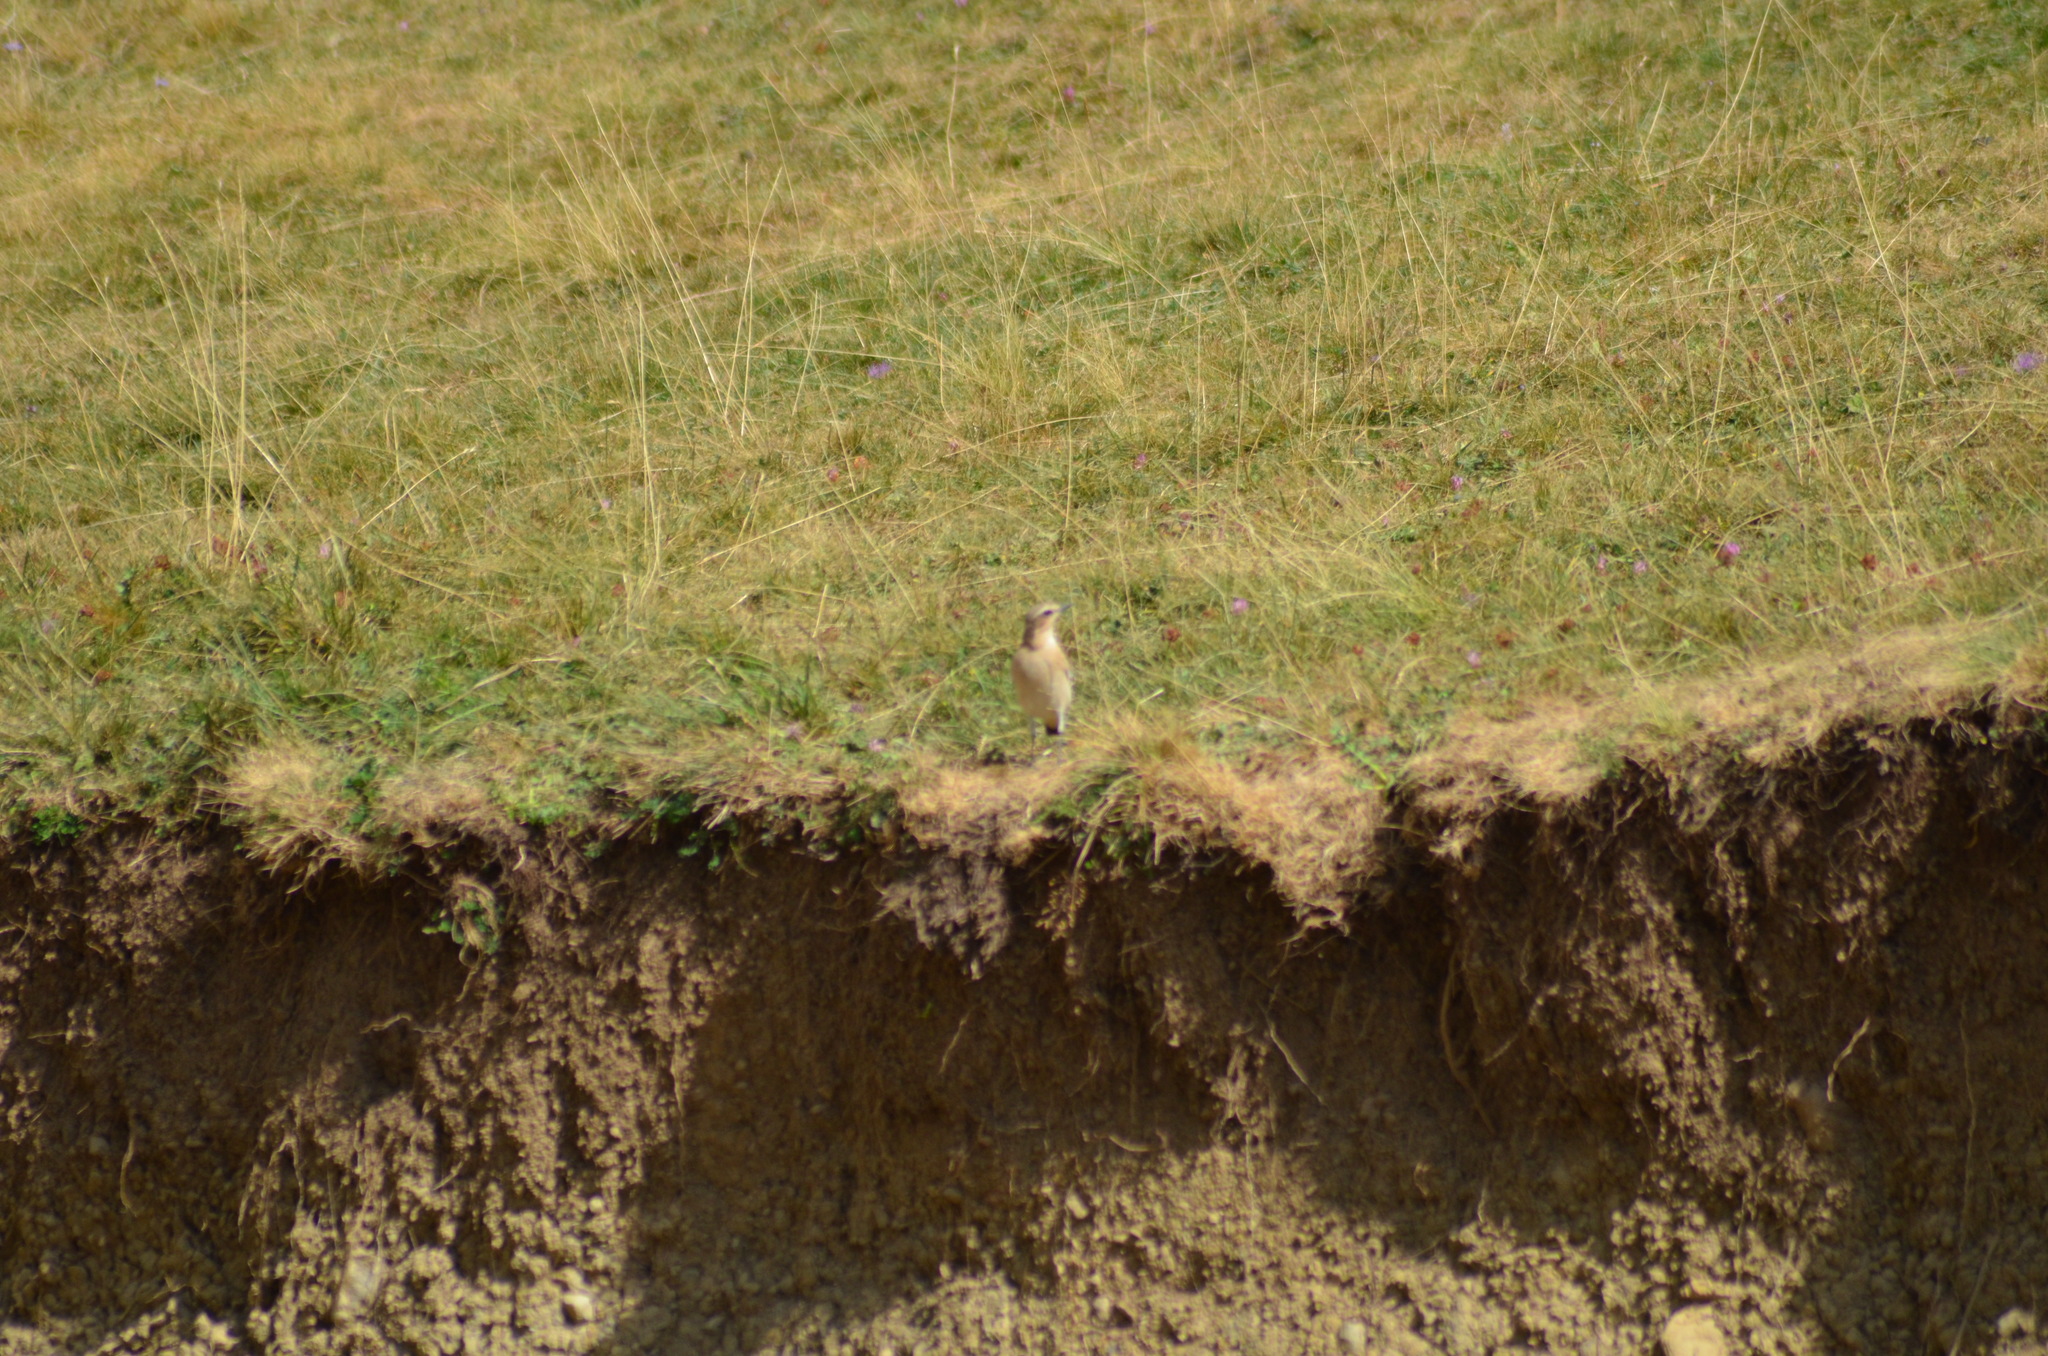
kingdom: Animalia
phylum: Chordata
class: Aves
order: Passeriformes
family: Muscicapidae
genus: Oenanthe
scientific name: Oenanthe oenanthe
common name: Northern wheatear
